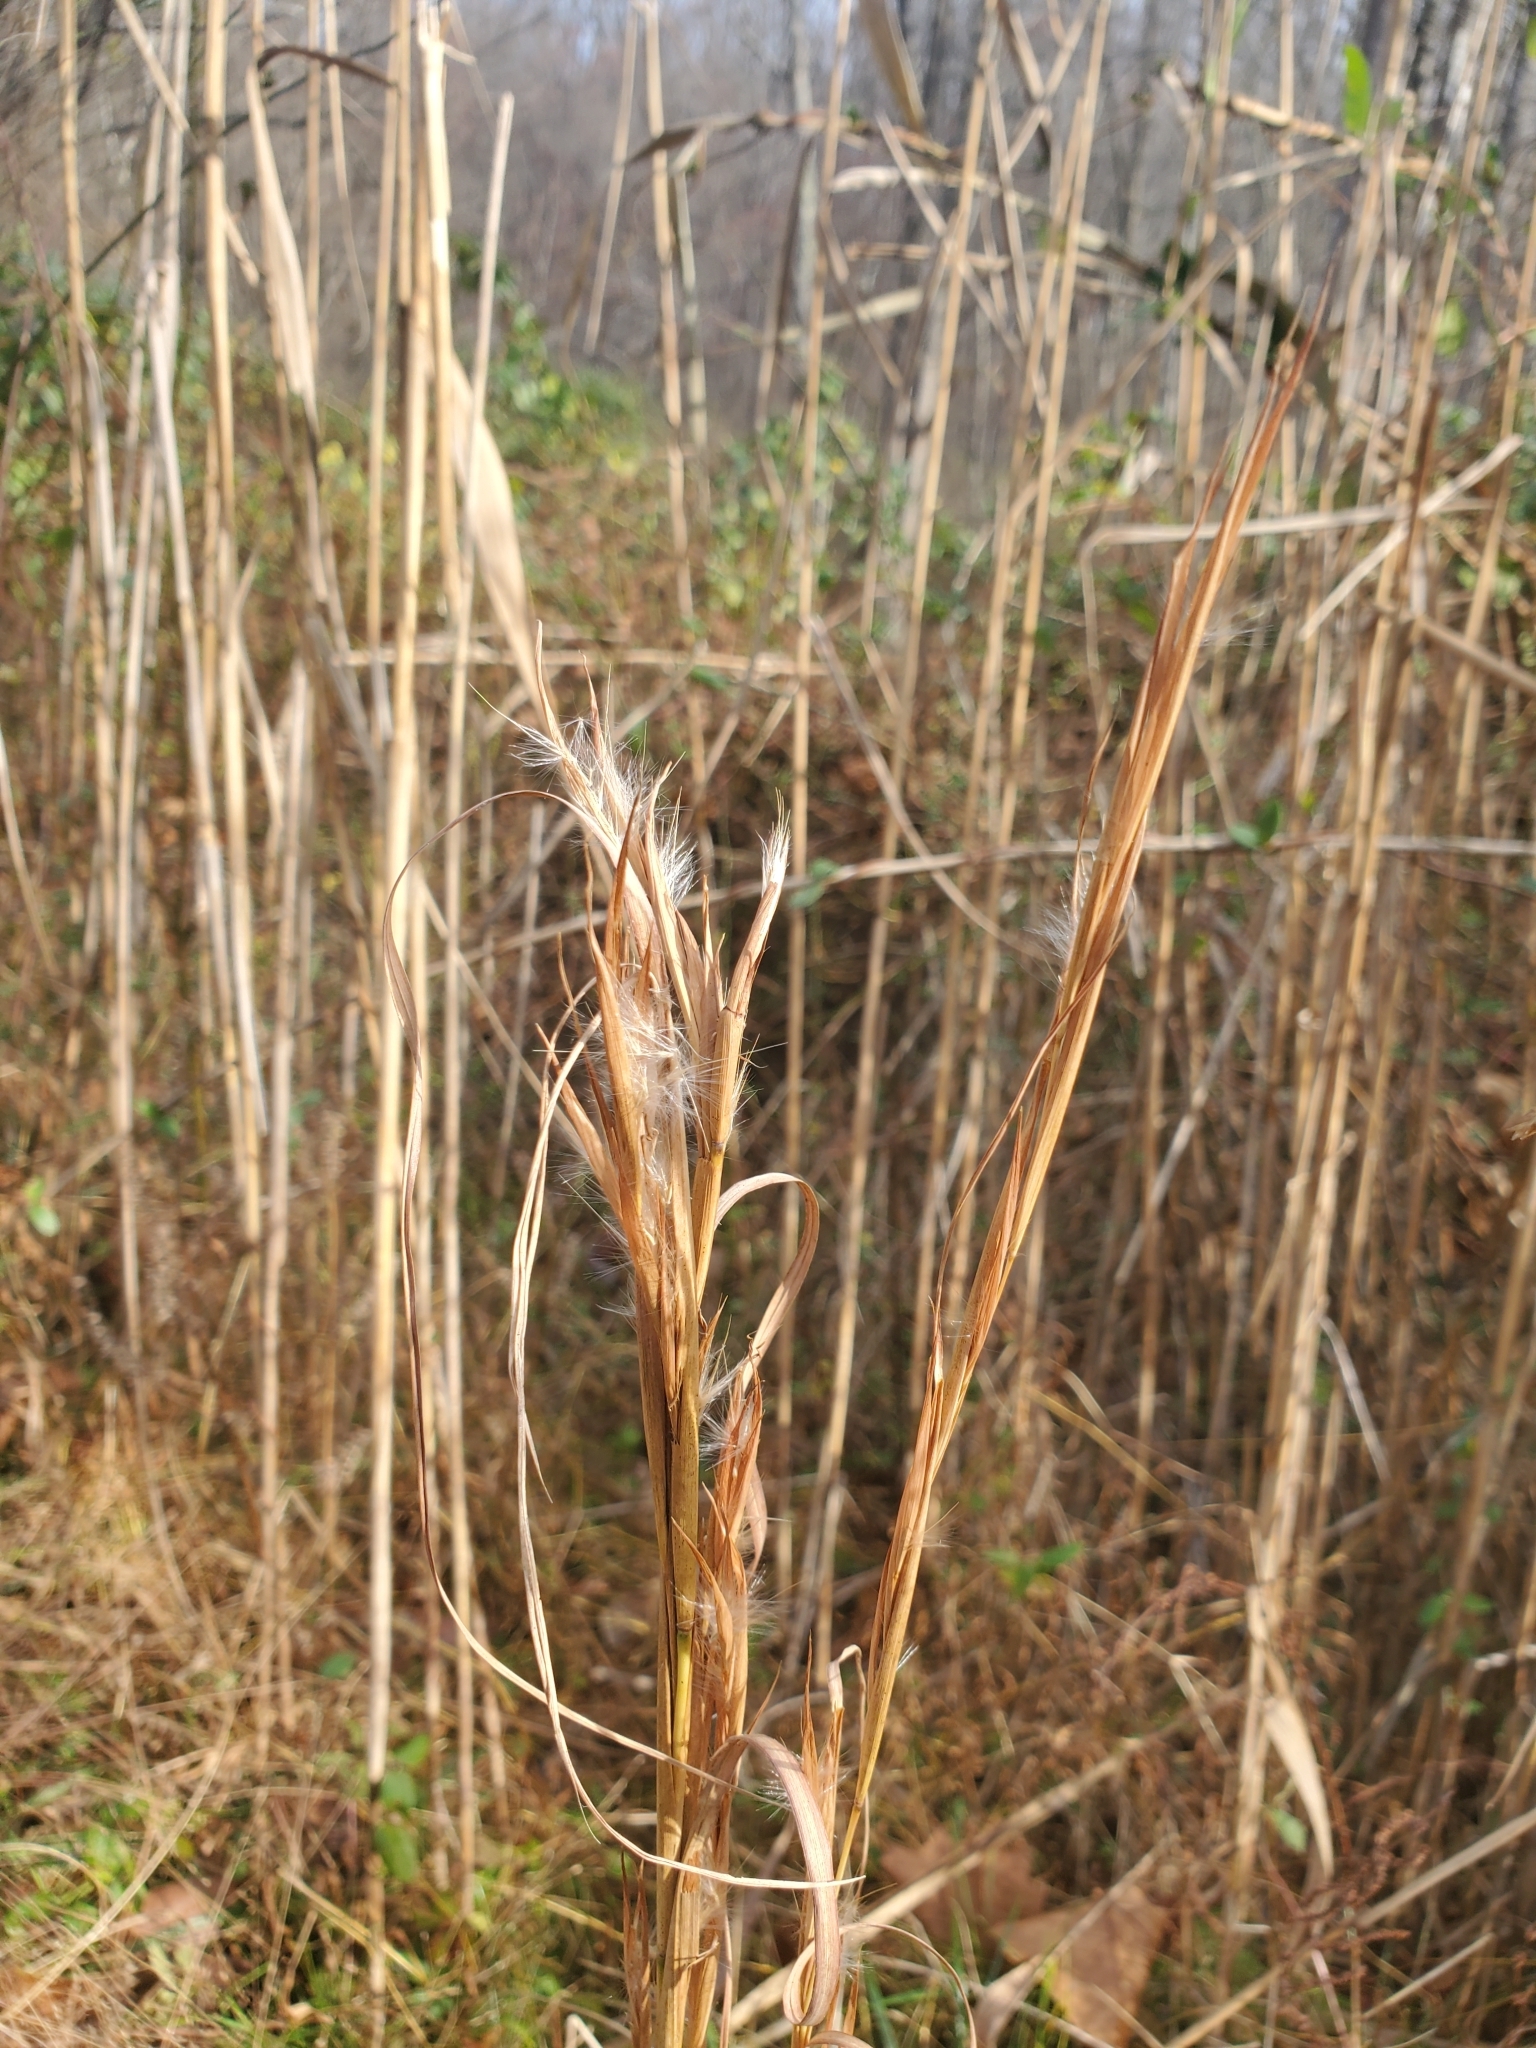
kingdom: Plantae
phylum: Tracheophyta
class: Liliopsida
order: Poales
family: Poaceae
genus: Andropogon
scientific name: Andropogon virginicus
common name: Broomsedge bluestem
